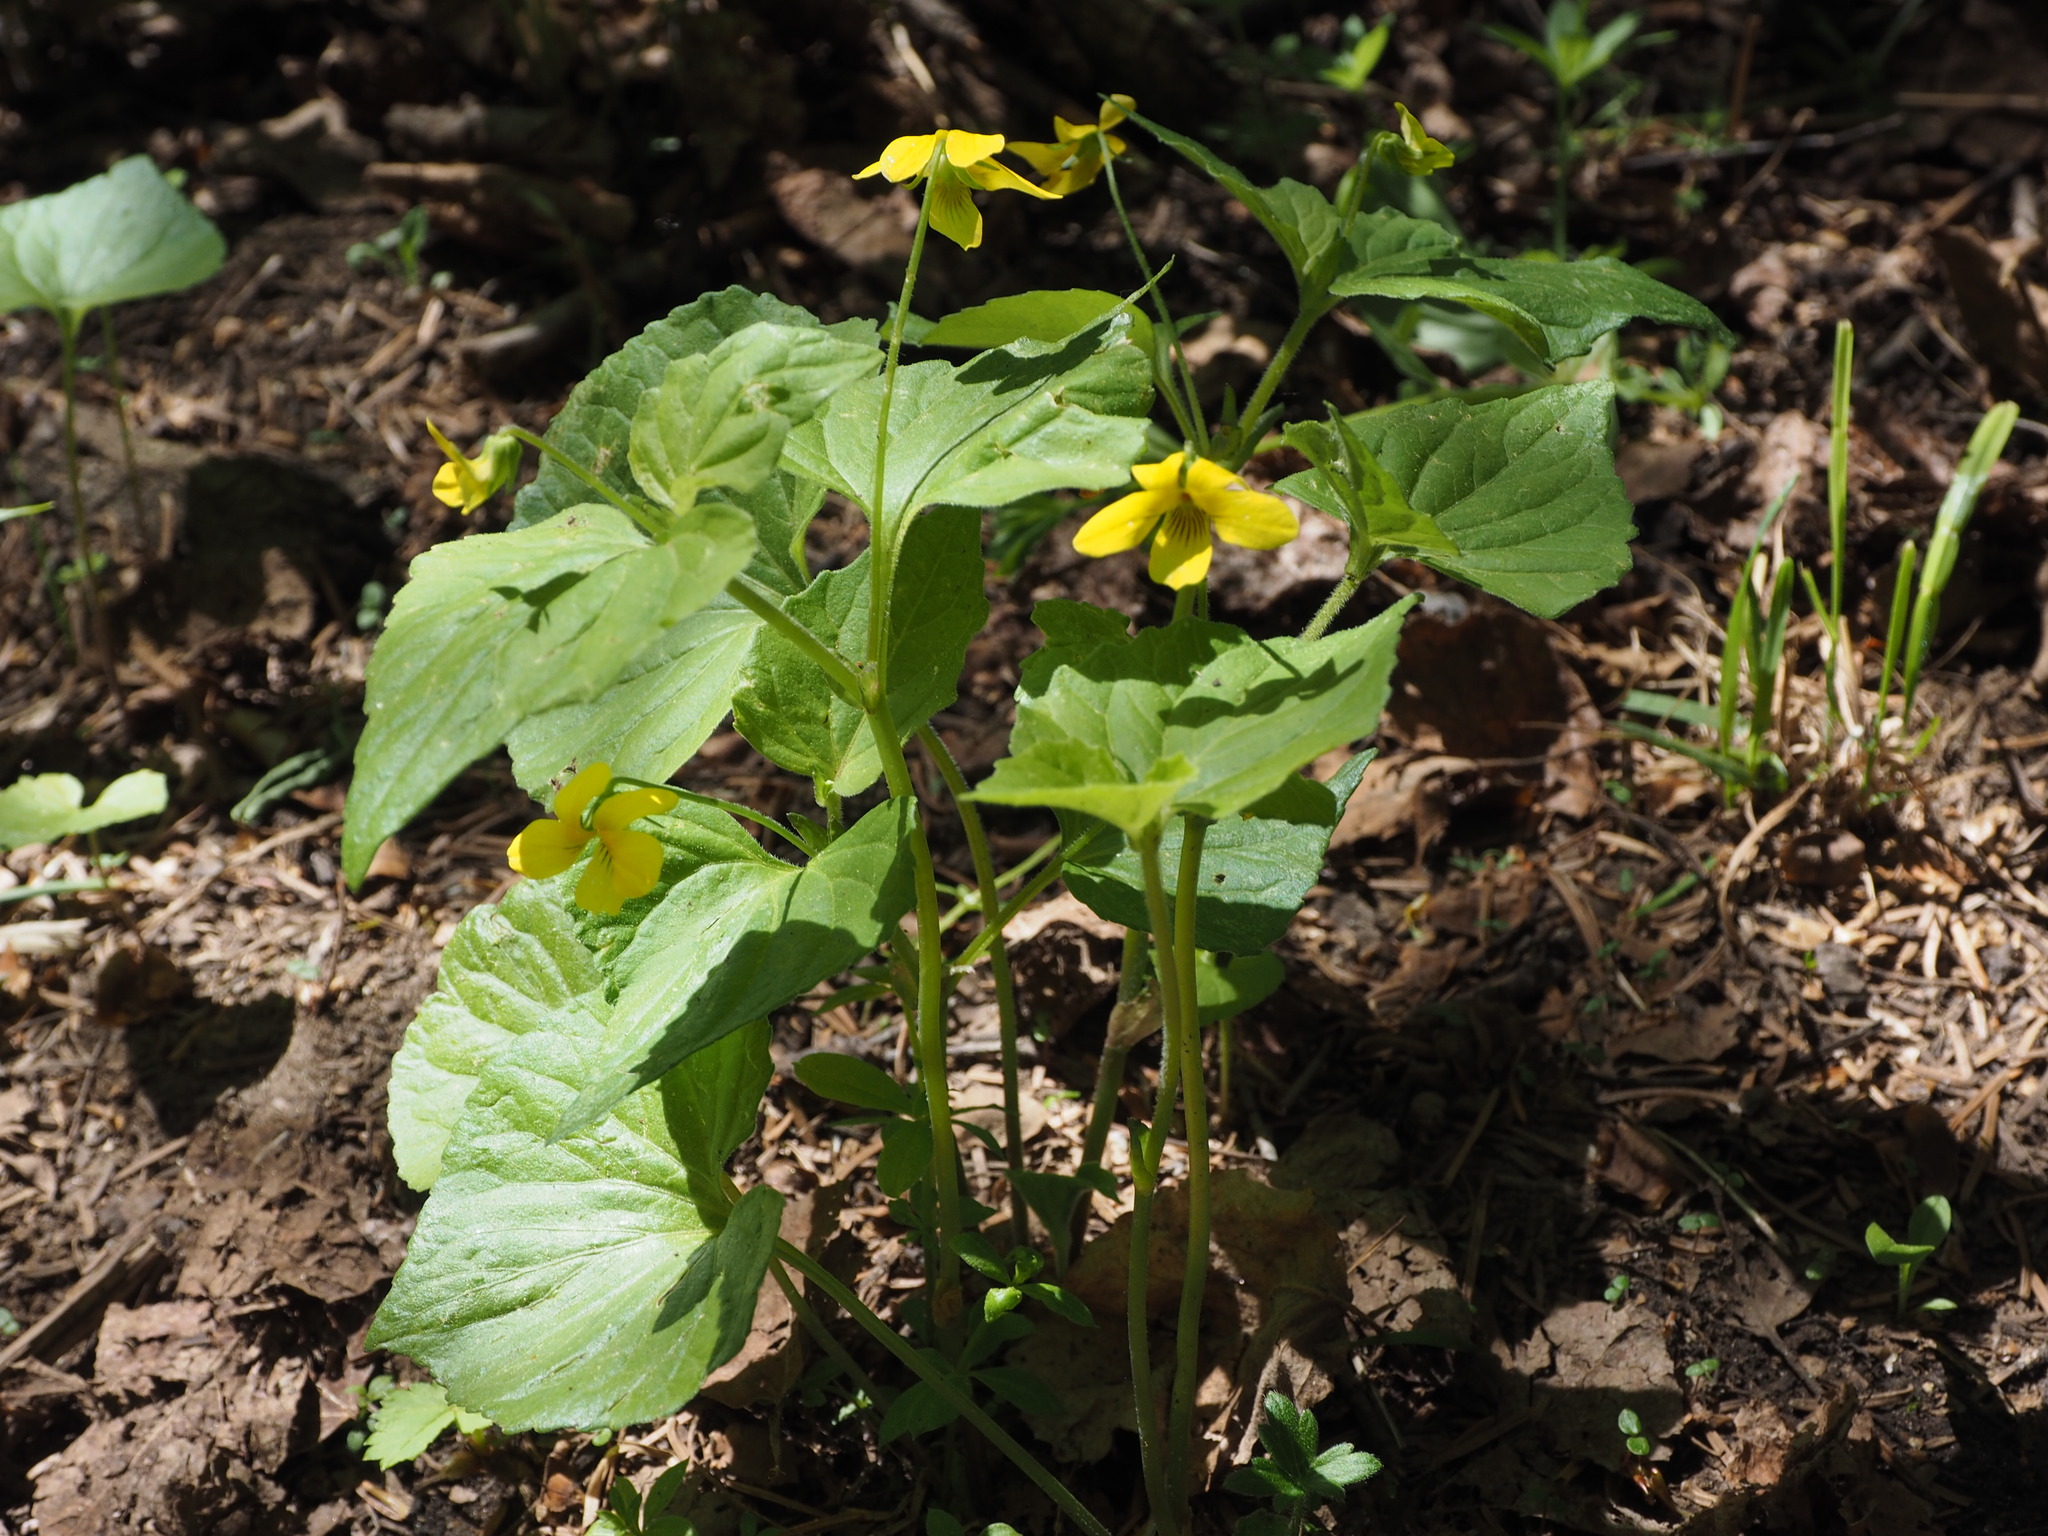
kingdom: Plantae
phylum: Tracheophyta
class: Magnoliopsida
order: Malpighiales
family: Violaceae
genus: Viola
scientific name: Viola eriocarpa
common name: Smooth yellow violet
